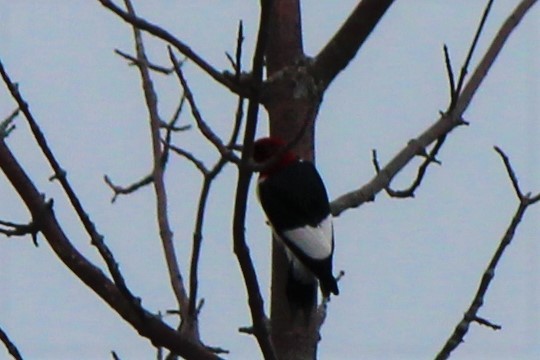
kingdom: Animalia
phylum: Chordata
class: Aves
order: Piciformes
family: Picidae
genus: Melanerpes
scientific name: Melanerpes erythrocephalus
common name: Red-headed woodpecker
